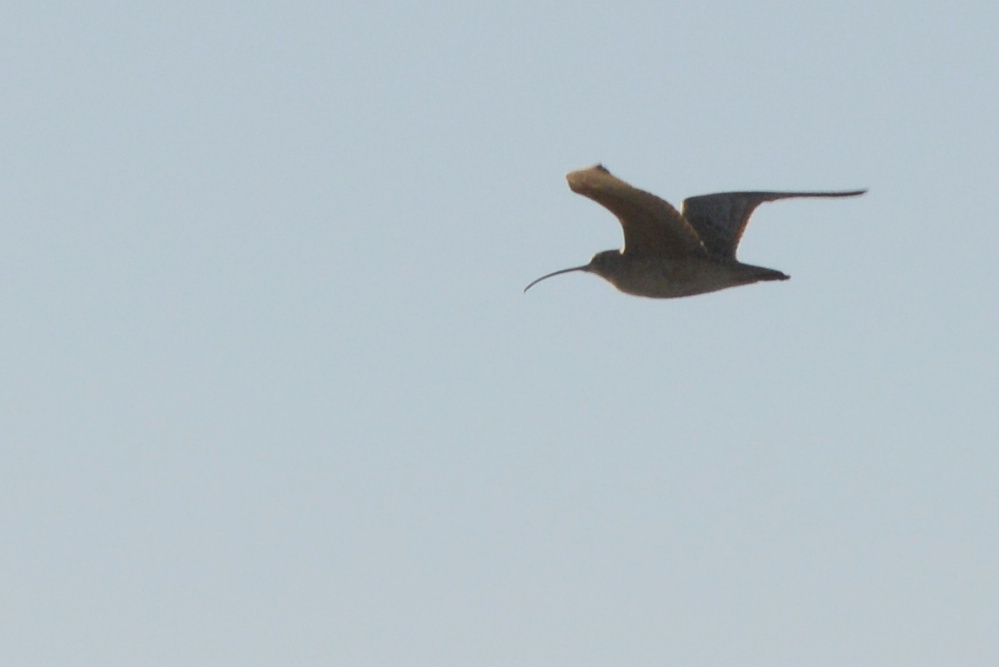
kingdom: Animalia
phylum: Chordata
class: Aves
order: Charadriiformes
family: Scolopacidae
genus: Numenius
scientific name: Numenius americanus
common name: Long-billed curlew
